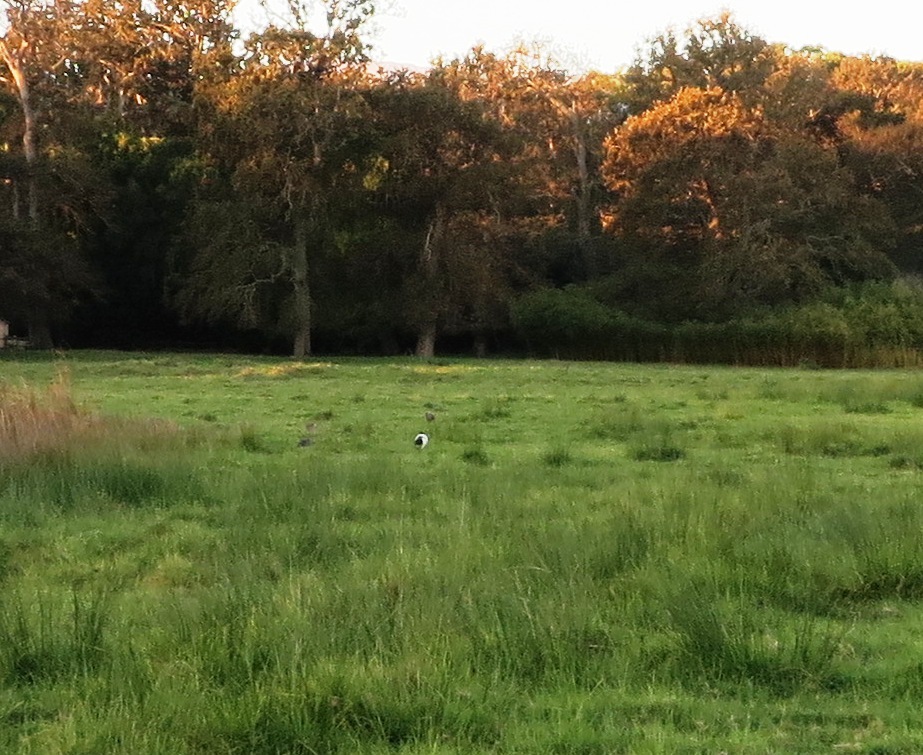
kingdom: Animalia
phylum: Chordata
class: Aves
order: Pelecaniformes
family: Threskiornithidae
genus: Threskiornis
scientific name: Threskiornis aethiopicus
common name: Sacred ibis
